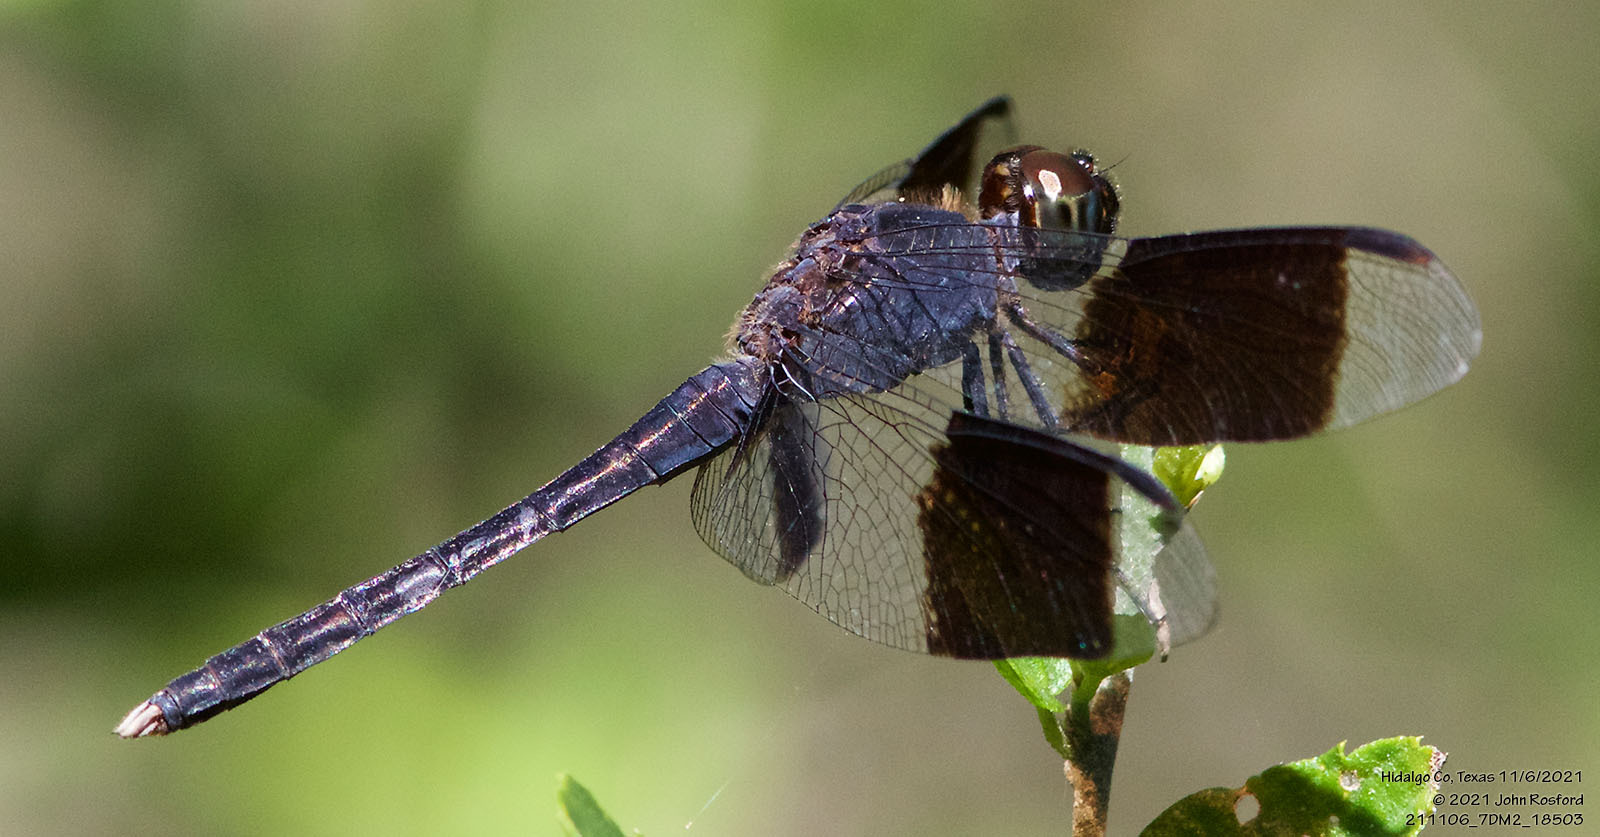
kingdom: Animalia
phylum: Arthropoda
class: Insecta
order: Odonata
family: Libellulidae
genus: Erythrodiplax
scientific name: Erythrodiplax umbrata
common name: Band-winged dragonlet
